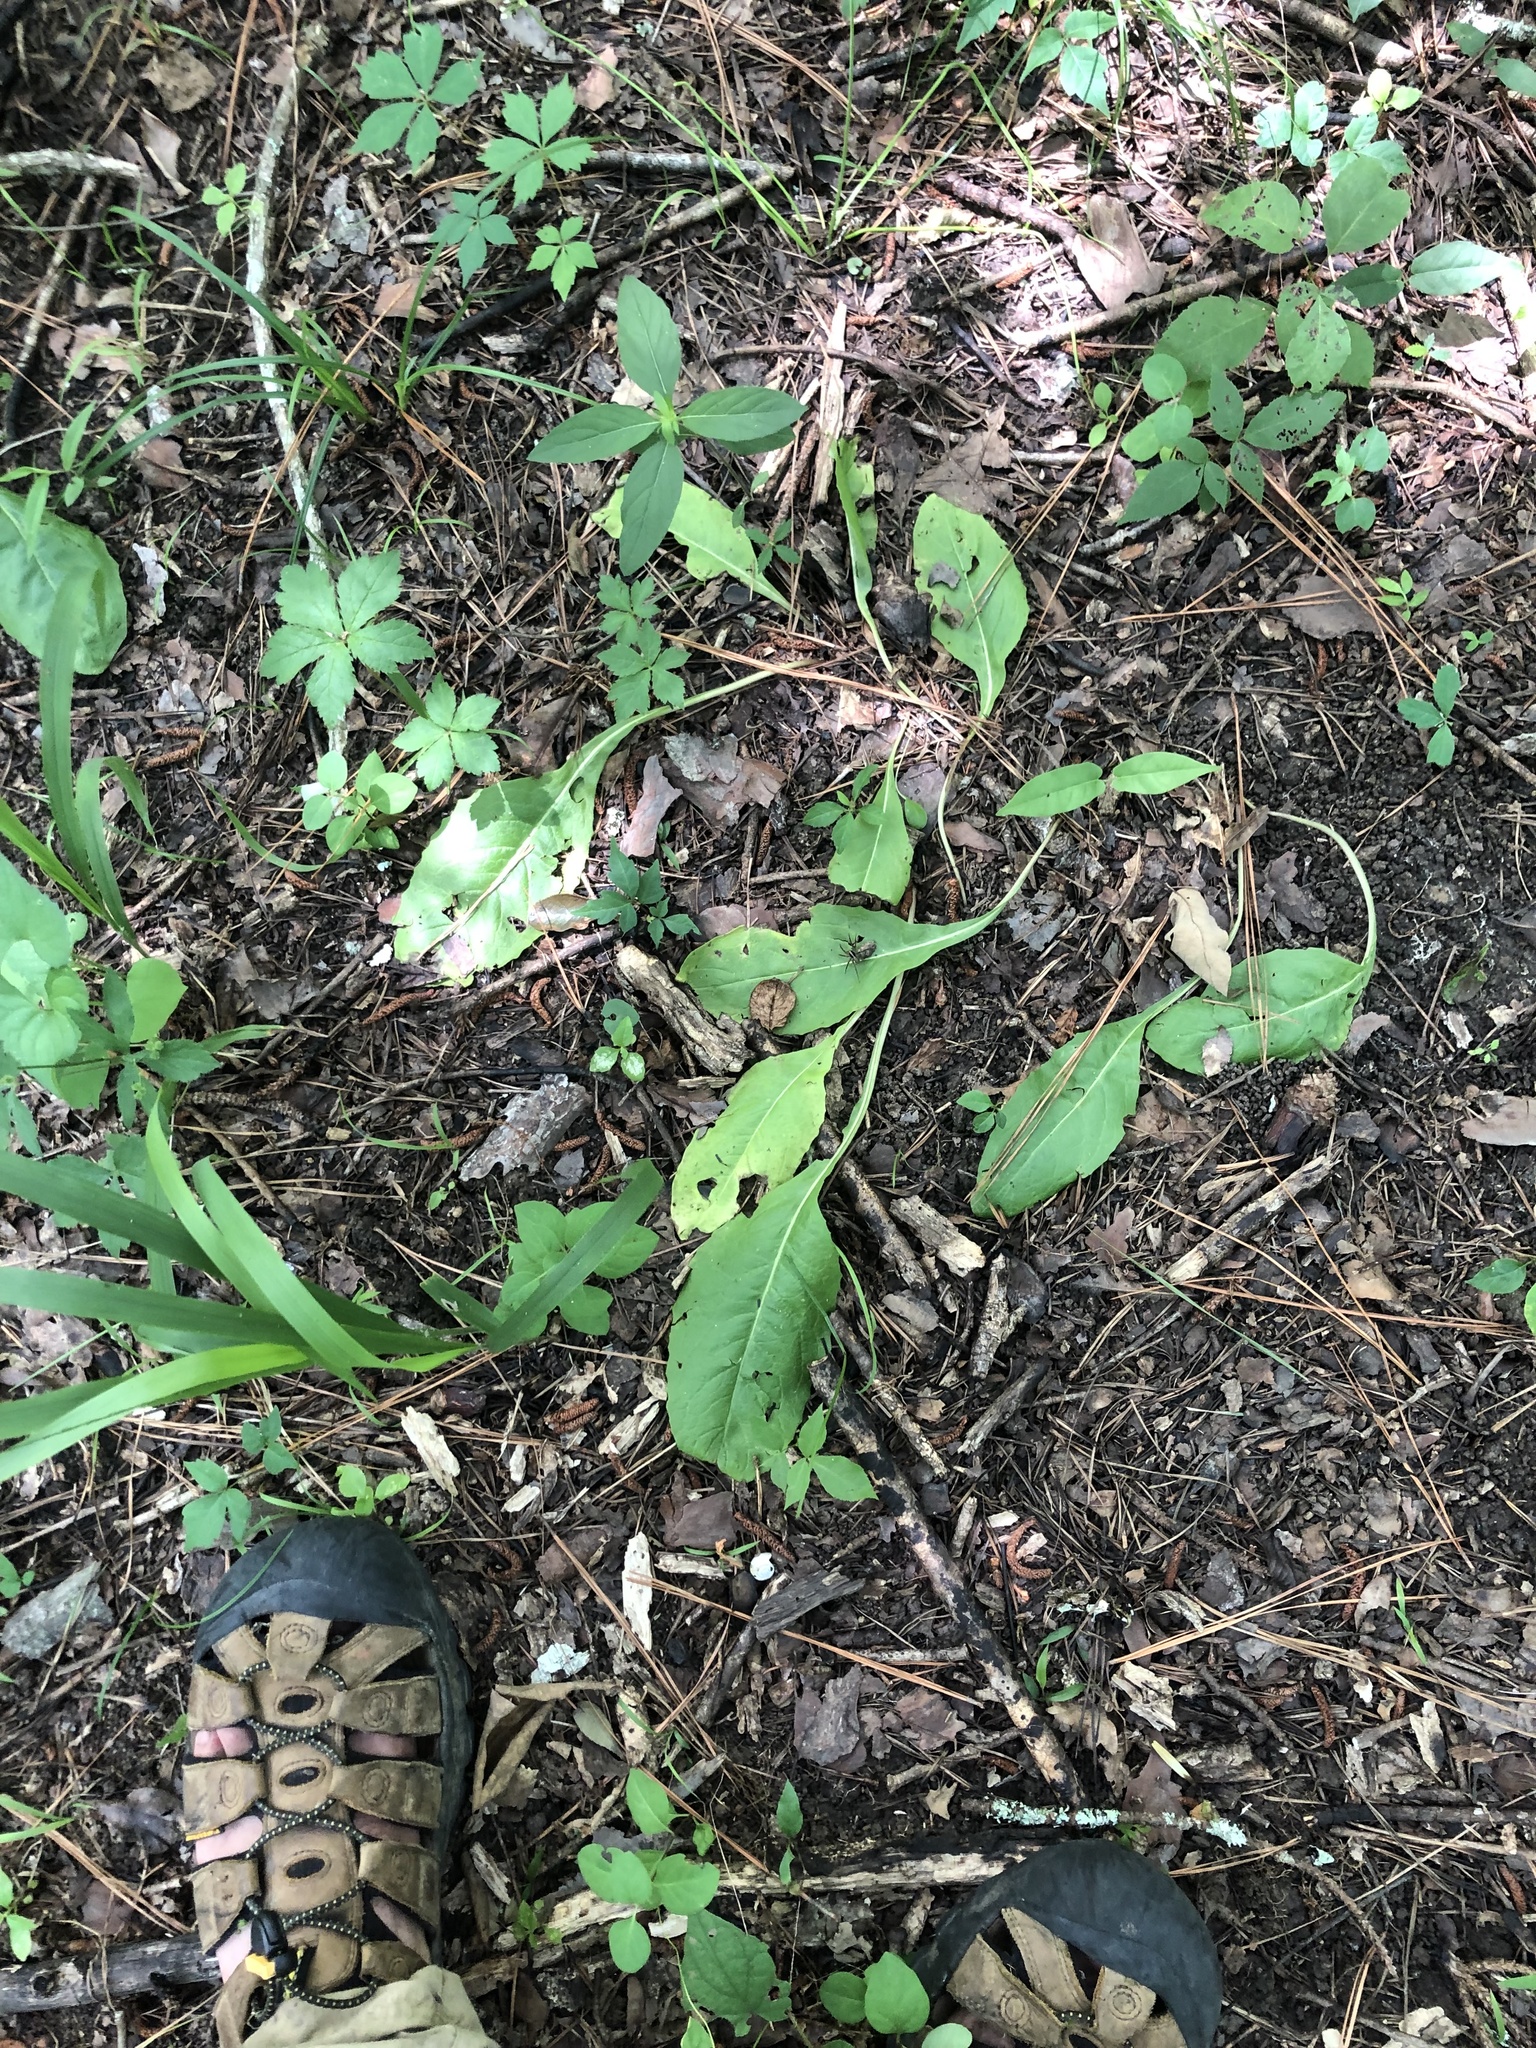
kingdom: Plantae
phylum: Tracheophyta
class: Magnoliopsida
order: Asterales
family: Asteraceae
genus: Nabalus
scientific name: Nabalus asper
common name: Rough rattlesnakeroot
